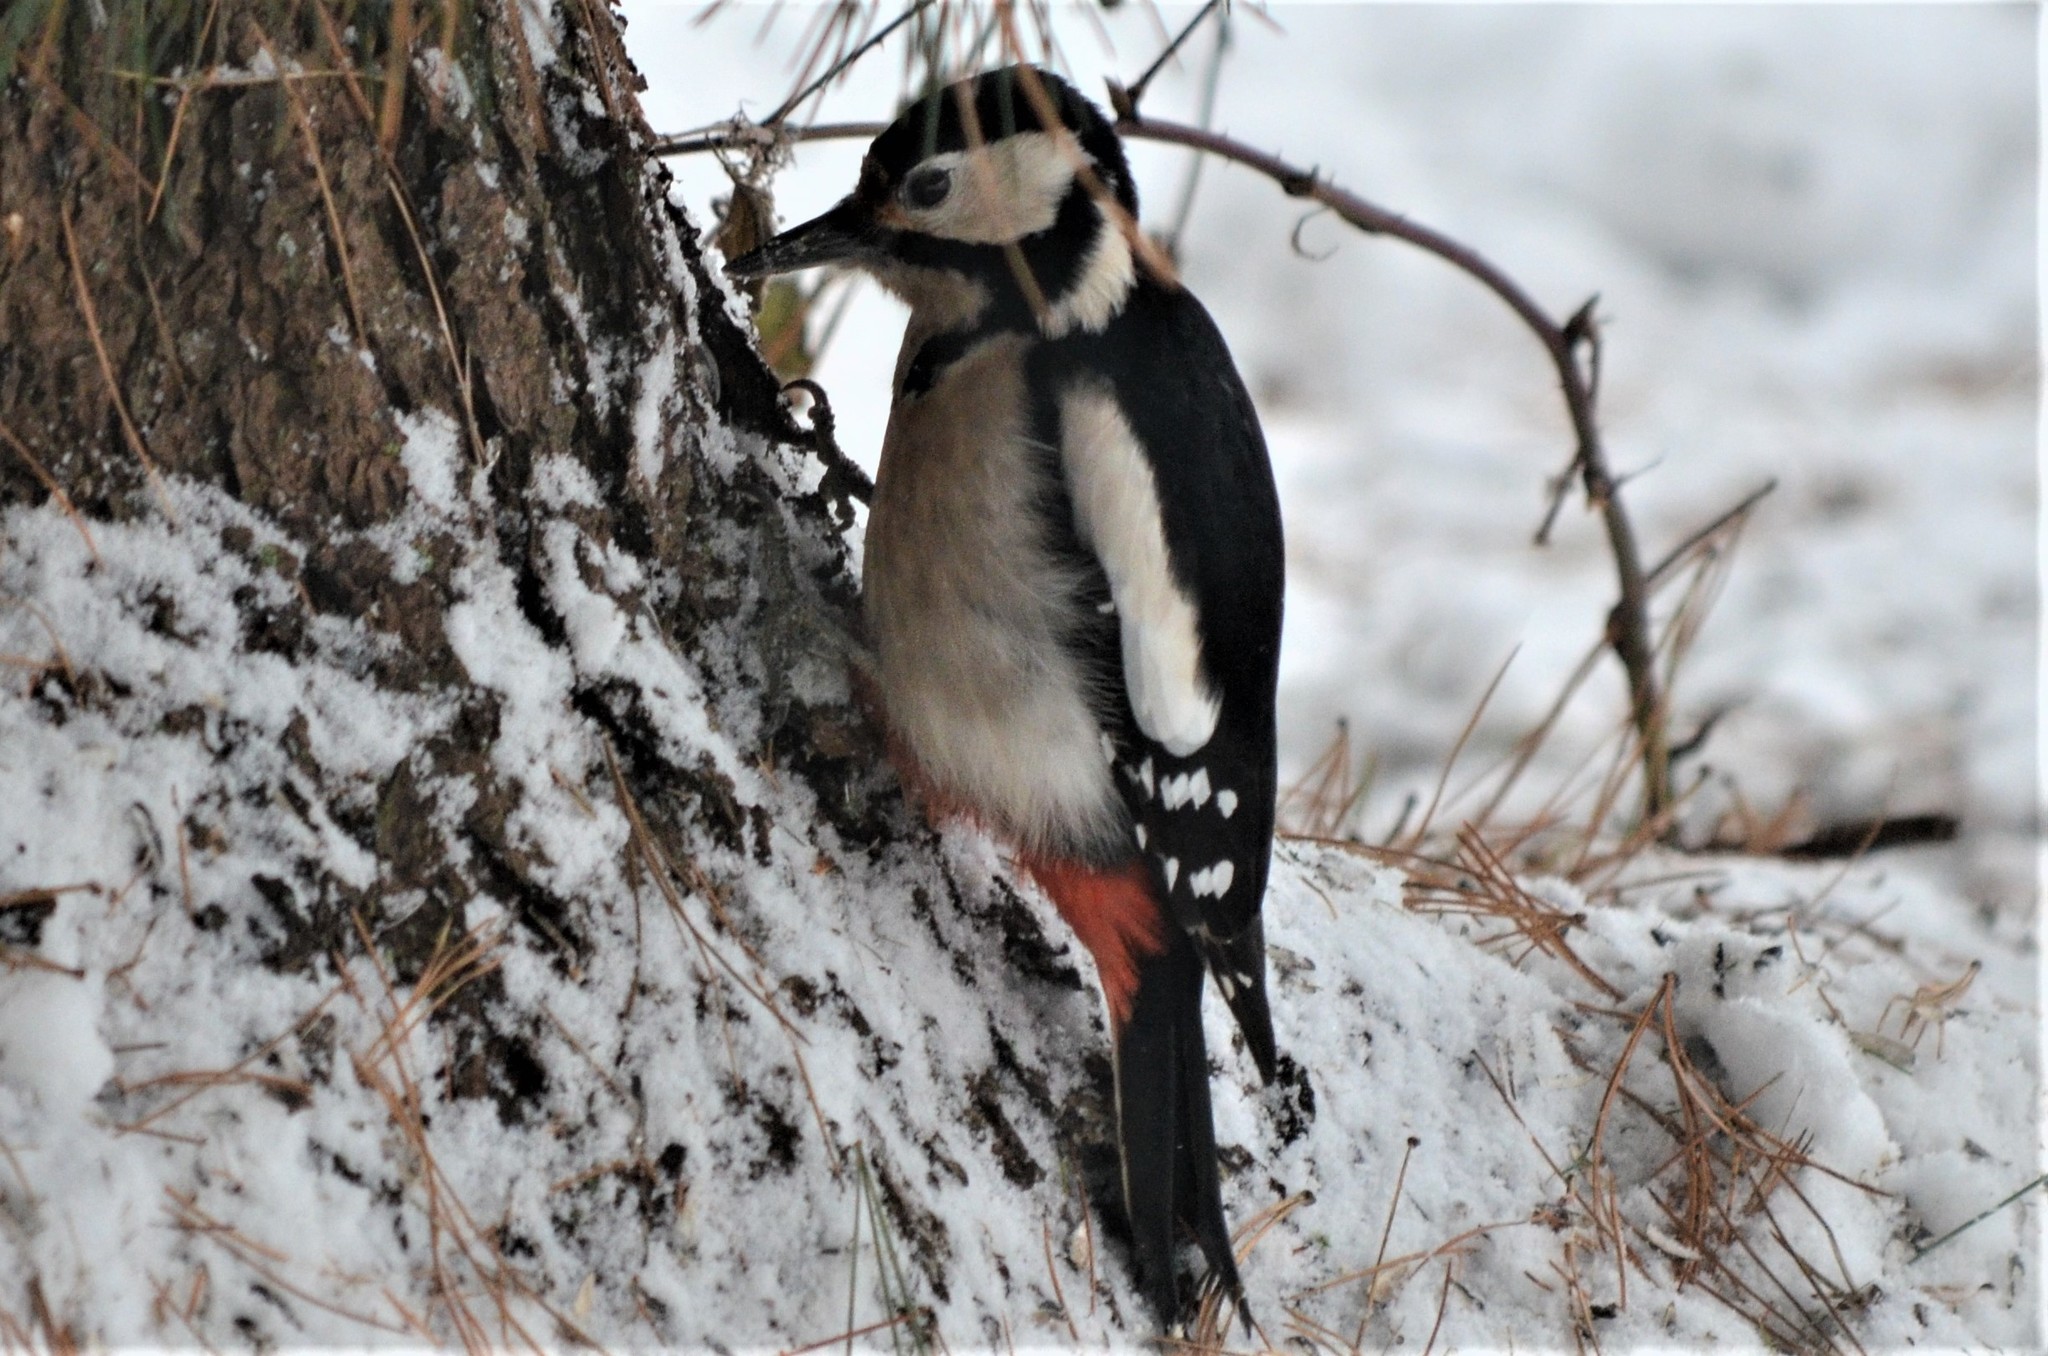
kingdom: Animalia
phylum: Chordata
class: Aves
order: Piciformes
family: Picidae
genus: Dendrocopos
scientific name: Dendrocopos major
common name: Great spotted woodpecker
